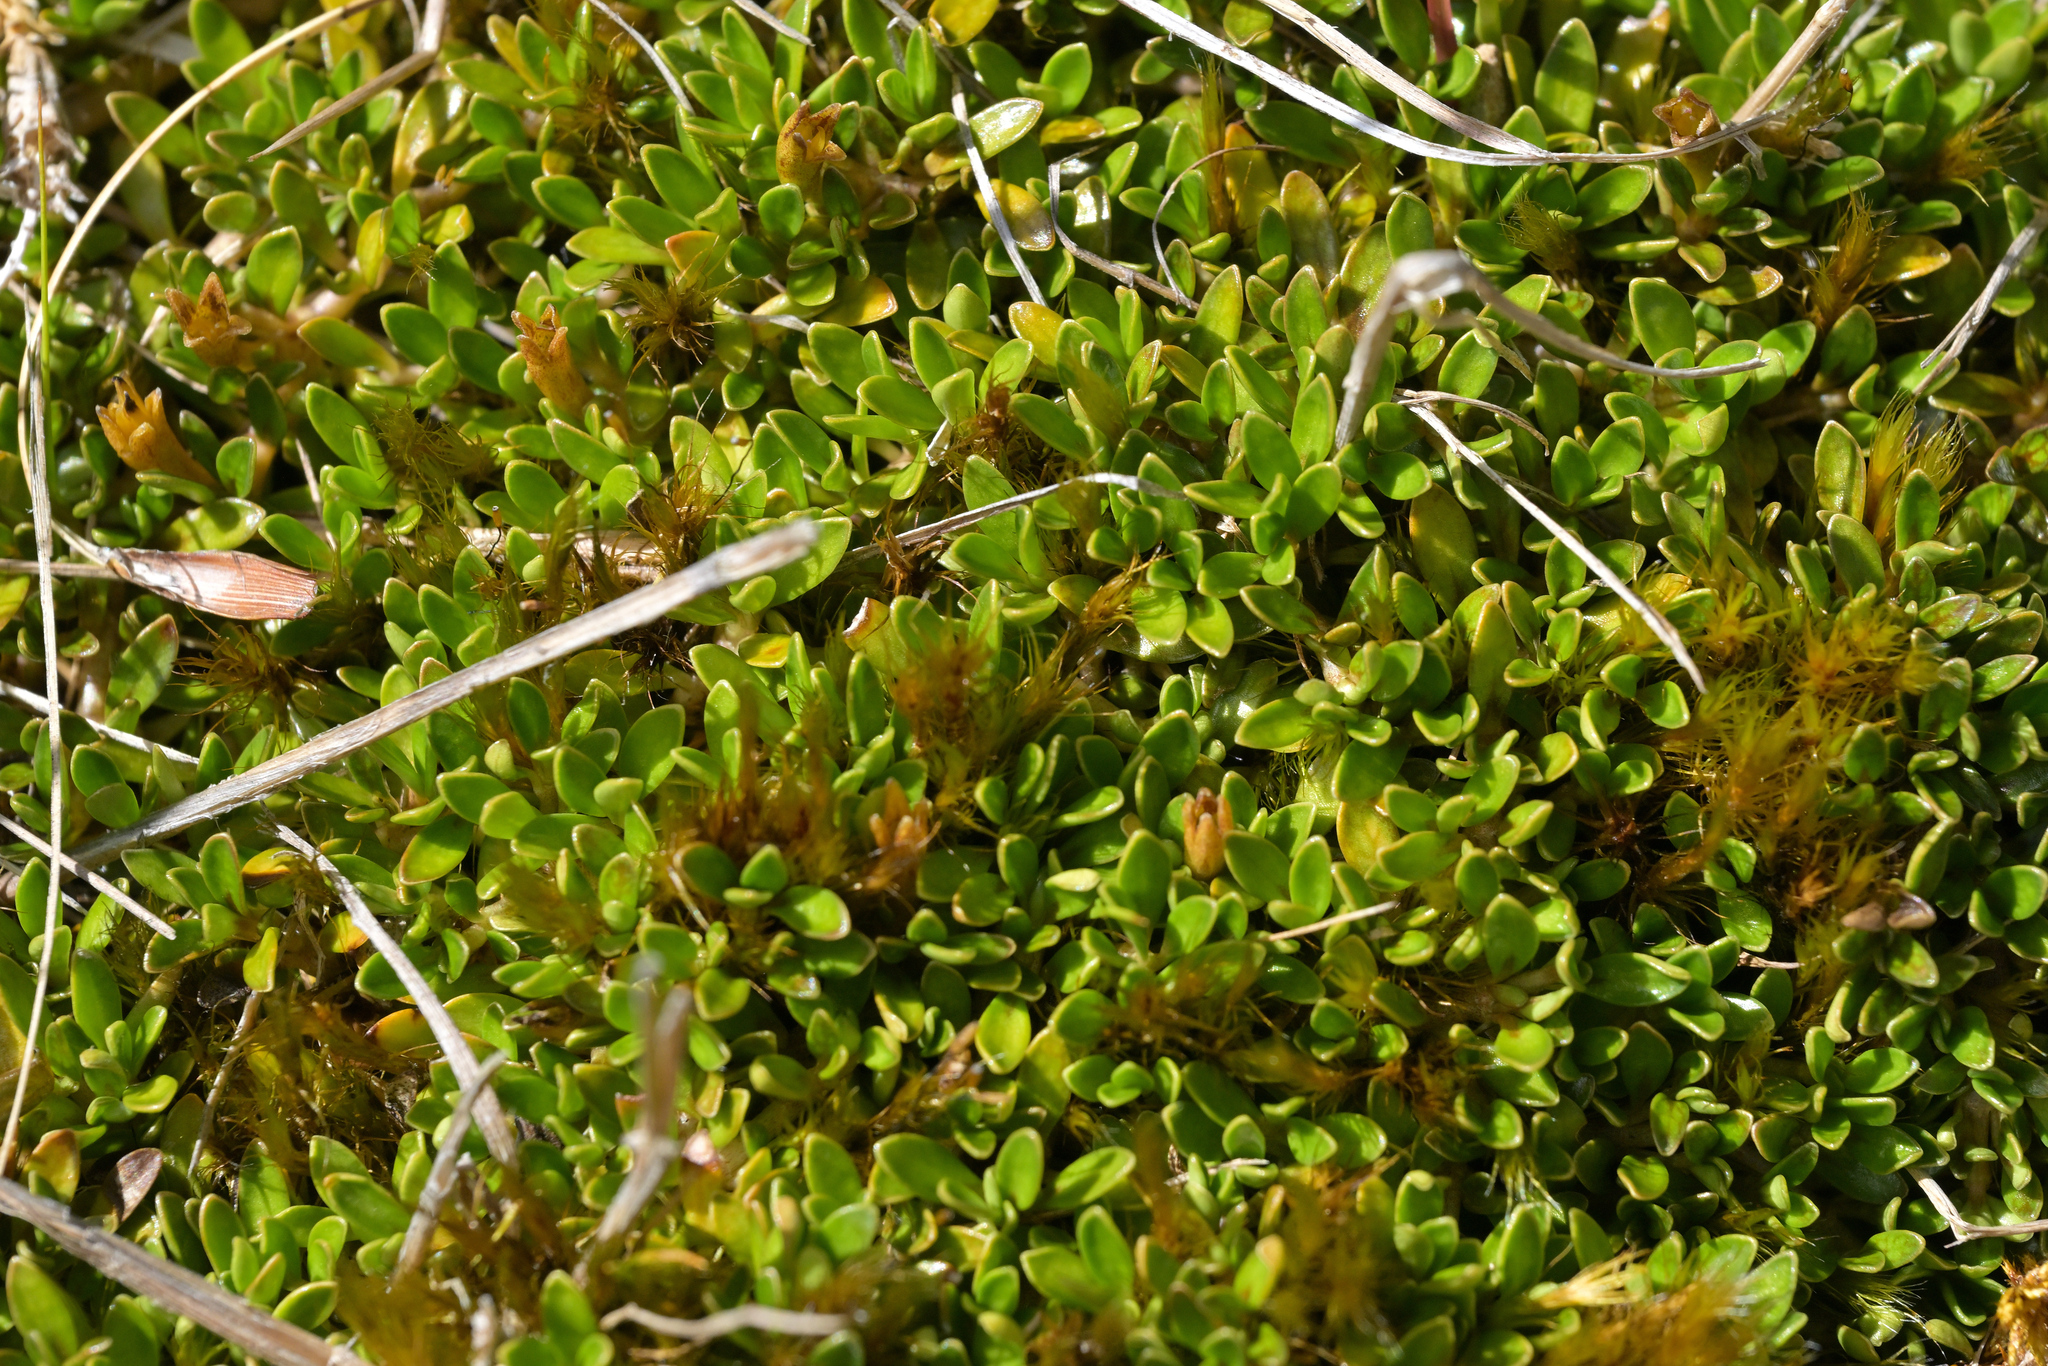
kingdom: Plantae
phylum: Tracheophyta
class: Magnoliopsida
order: Gentianales
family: Rubiaceae
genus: Coprosma
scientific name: Coprosma perpusilla
